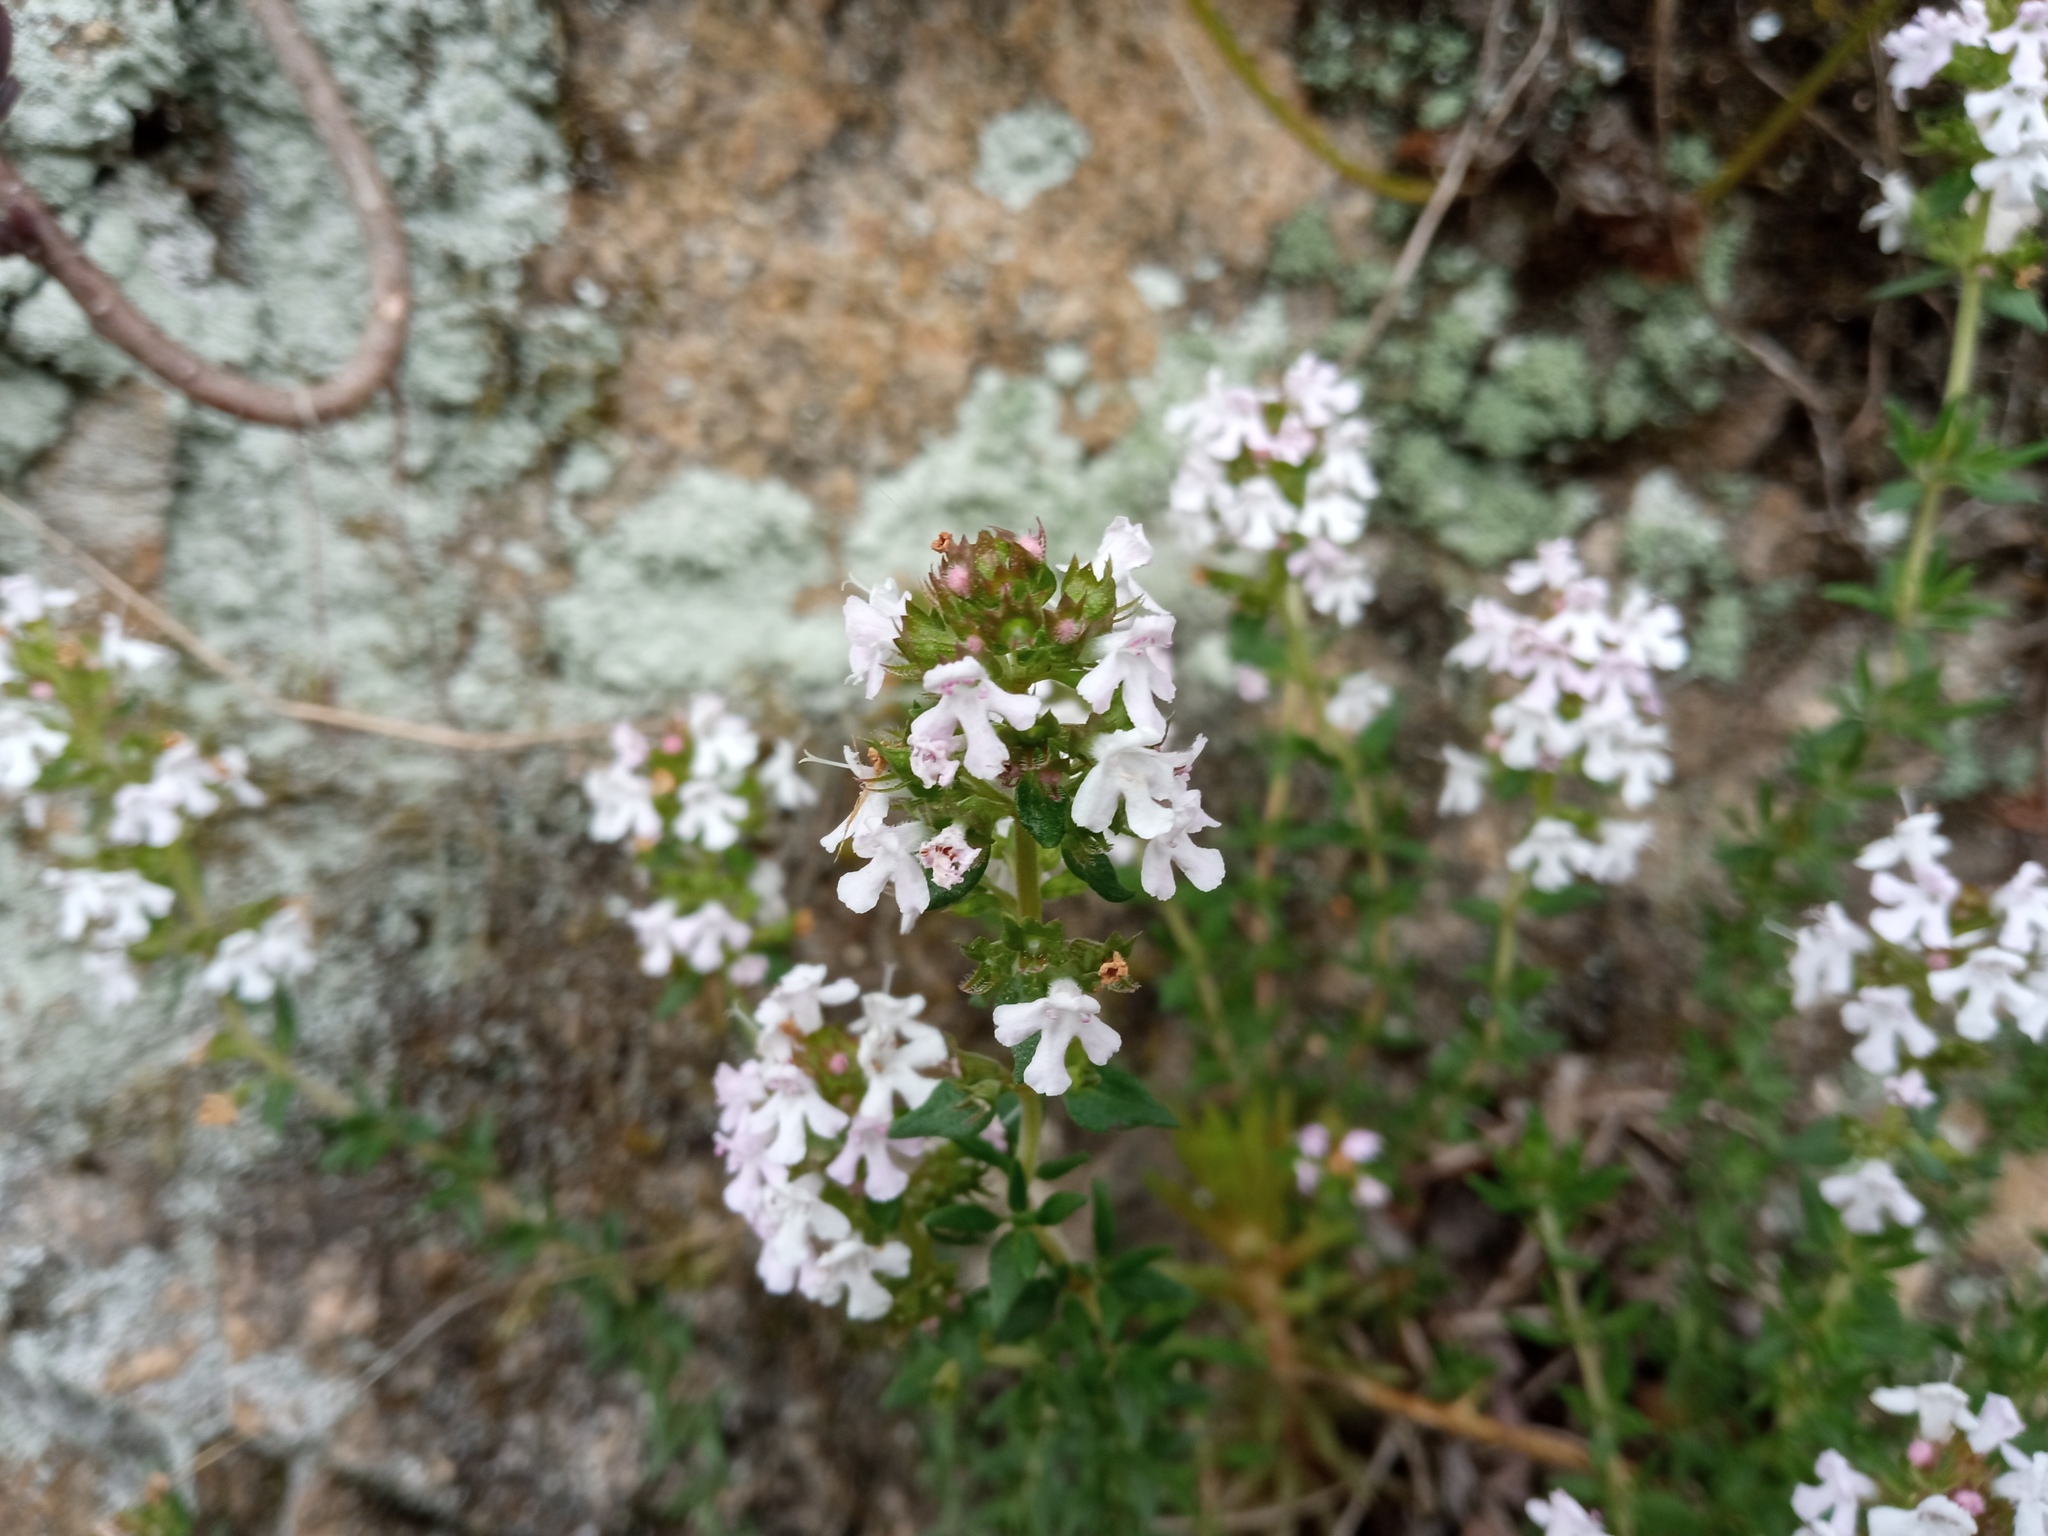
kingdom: Plantae
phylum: Tracheophyta
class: Magnoliopsida
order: Lamiales
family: Lamiaceae
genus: Thymus
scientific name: Thymus vulgaris
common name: Garden thyme
